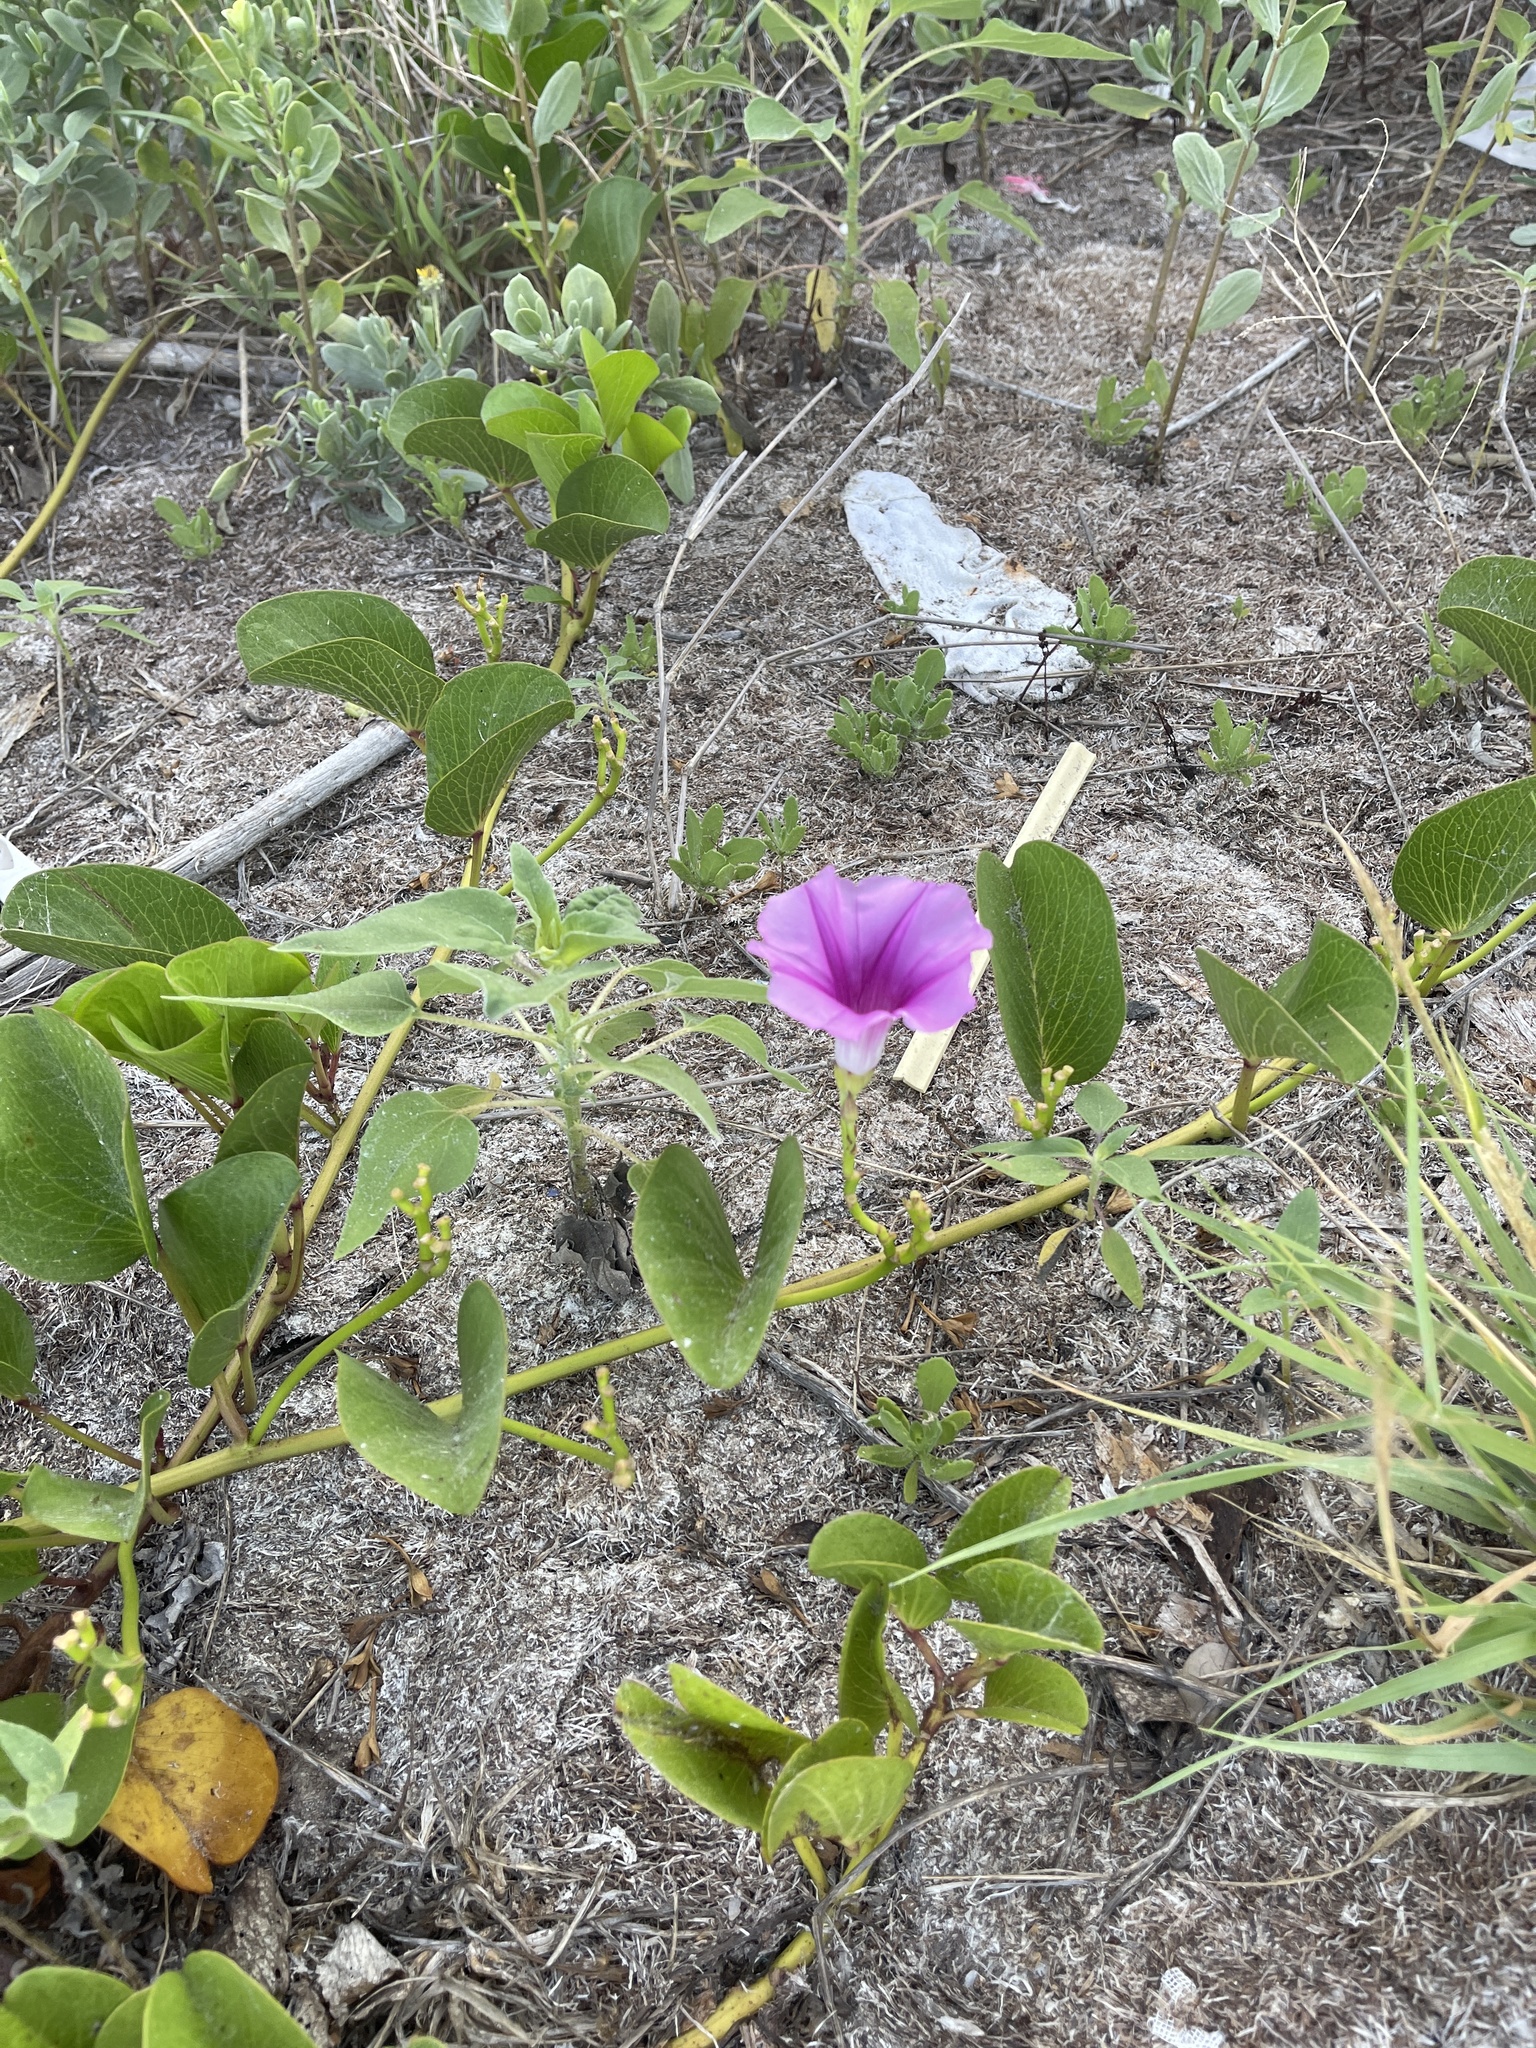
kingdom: Plantae
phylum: Tracheophyta
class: Magnoliopsida
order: Solanales
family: Convolvulaceae
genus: Ipomoea
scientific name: Ipomoea pes-caprae
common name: Beach morning glory
